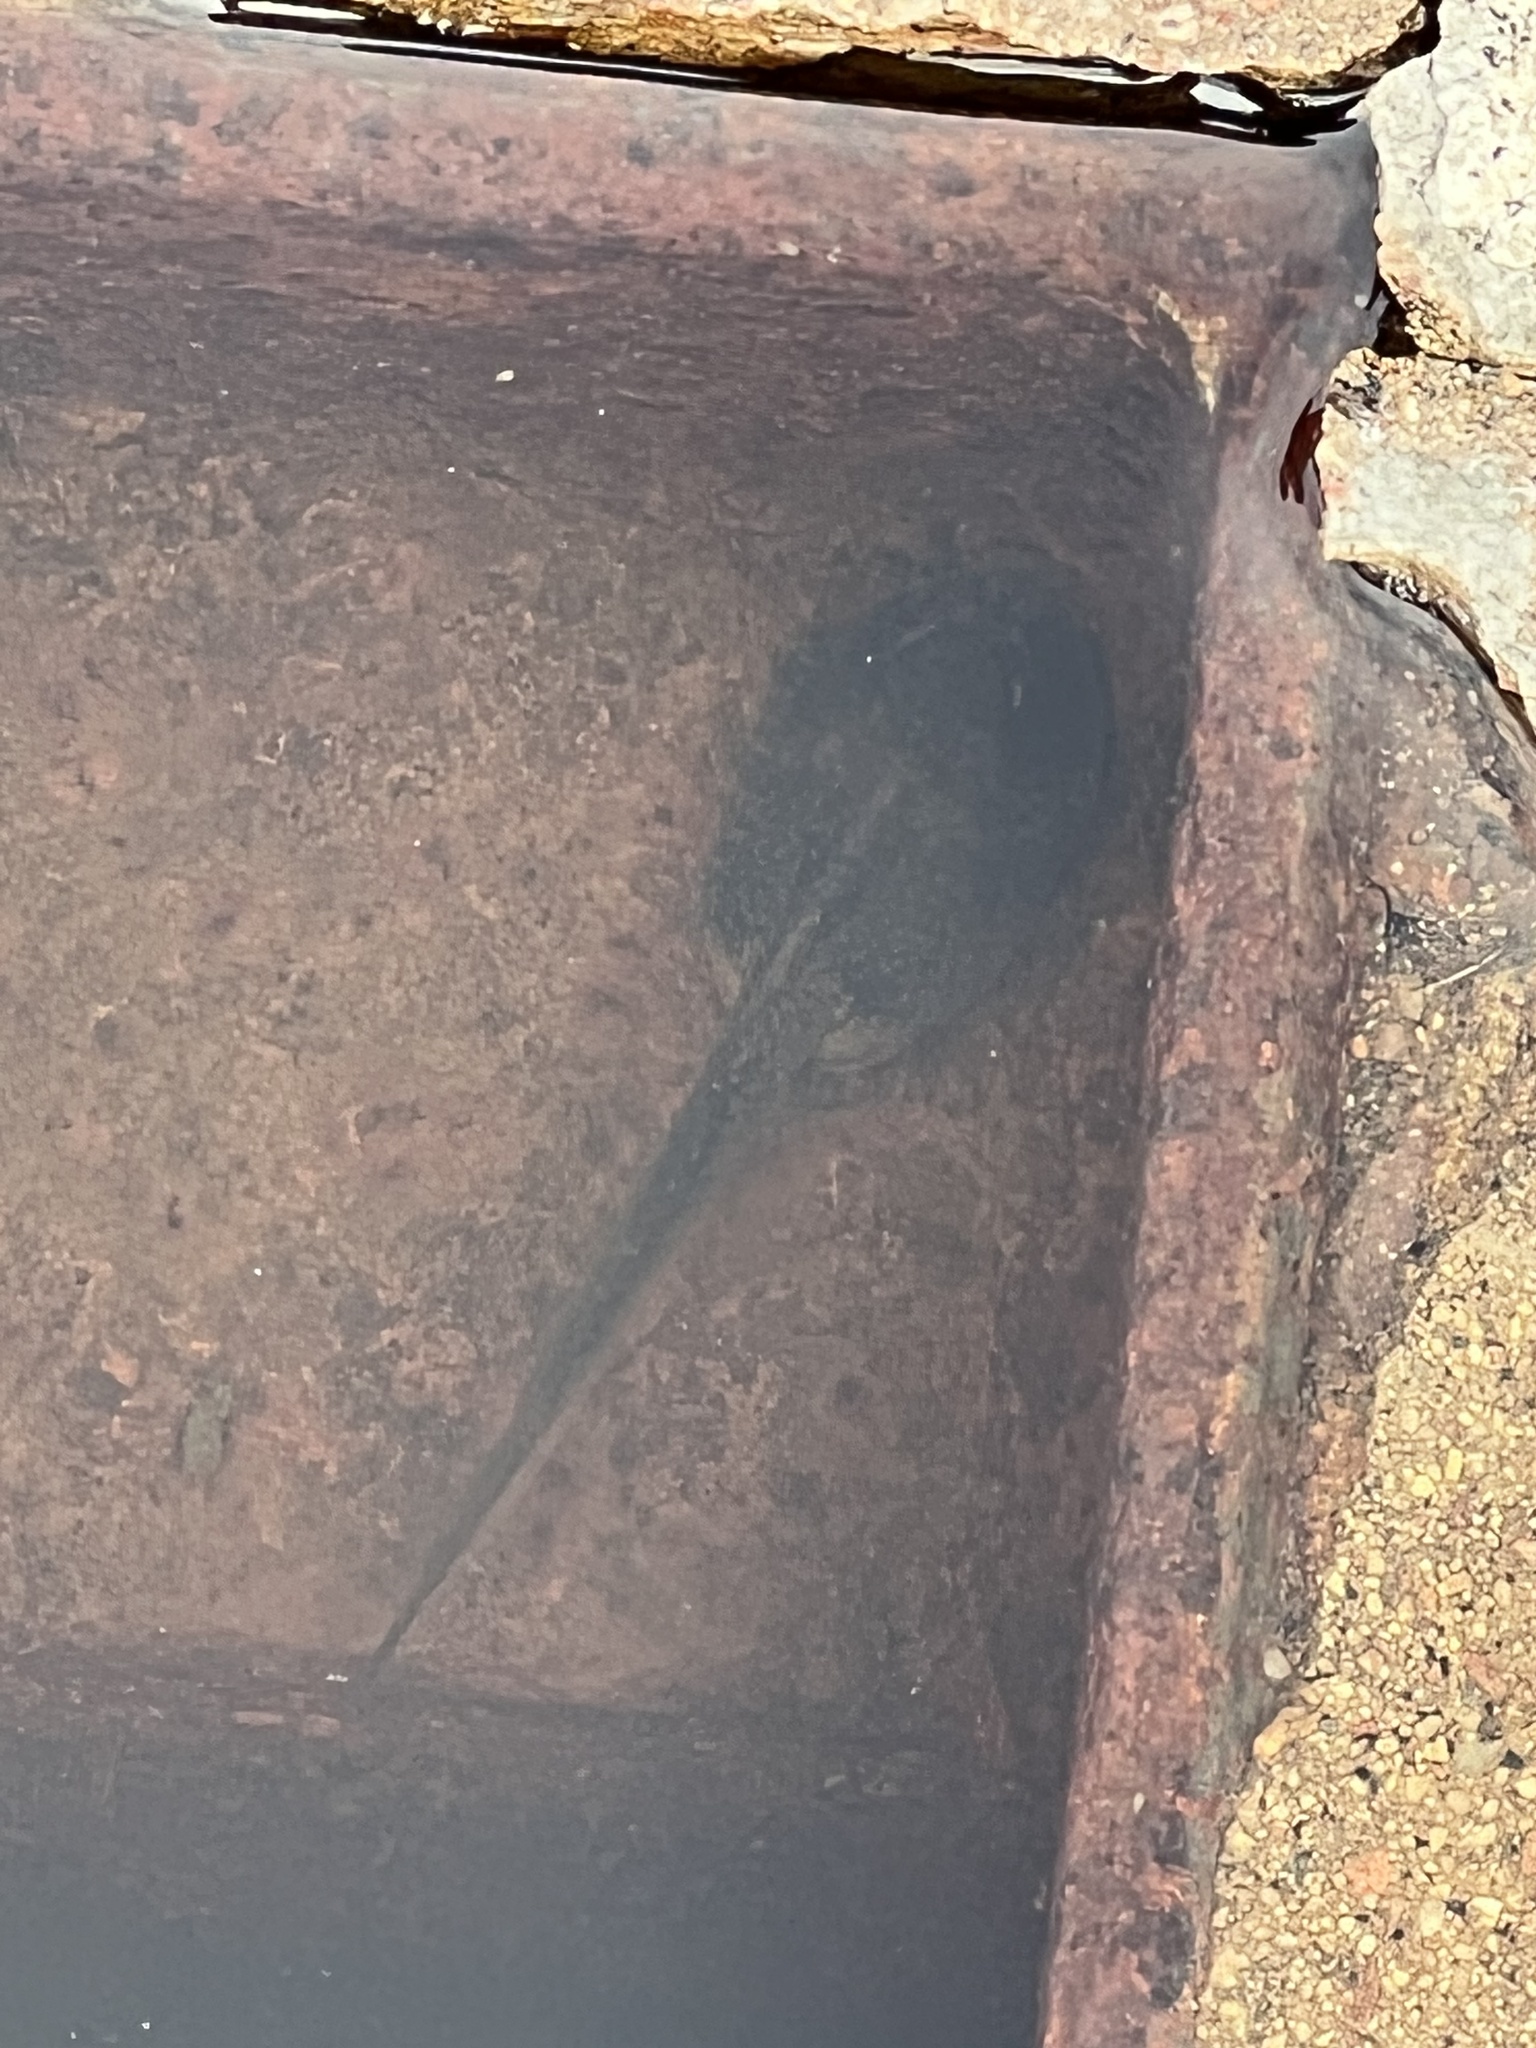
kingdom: Animalia
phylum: Chordata
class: Amphibia
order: Anura
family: Scaphiopodidae
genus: Spea
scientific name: Spea hammondii
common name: Western spadefoot toad
